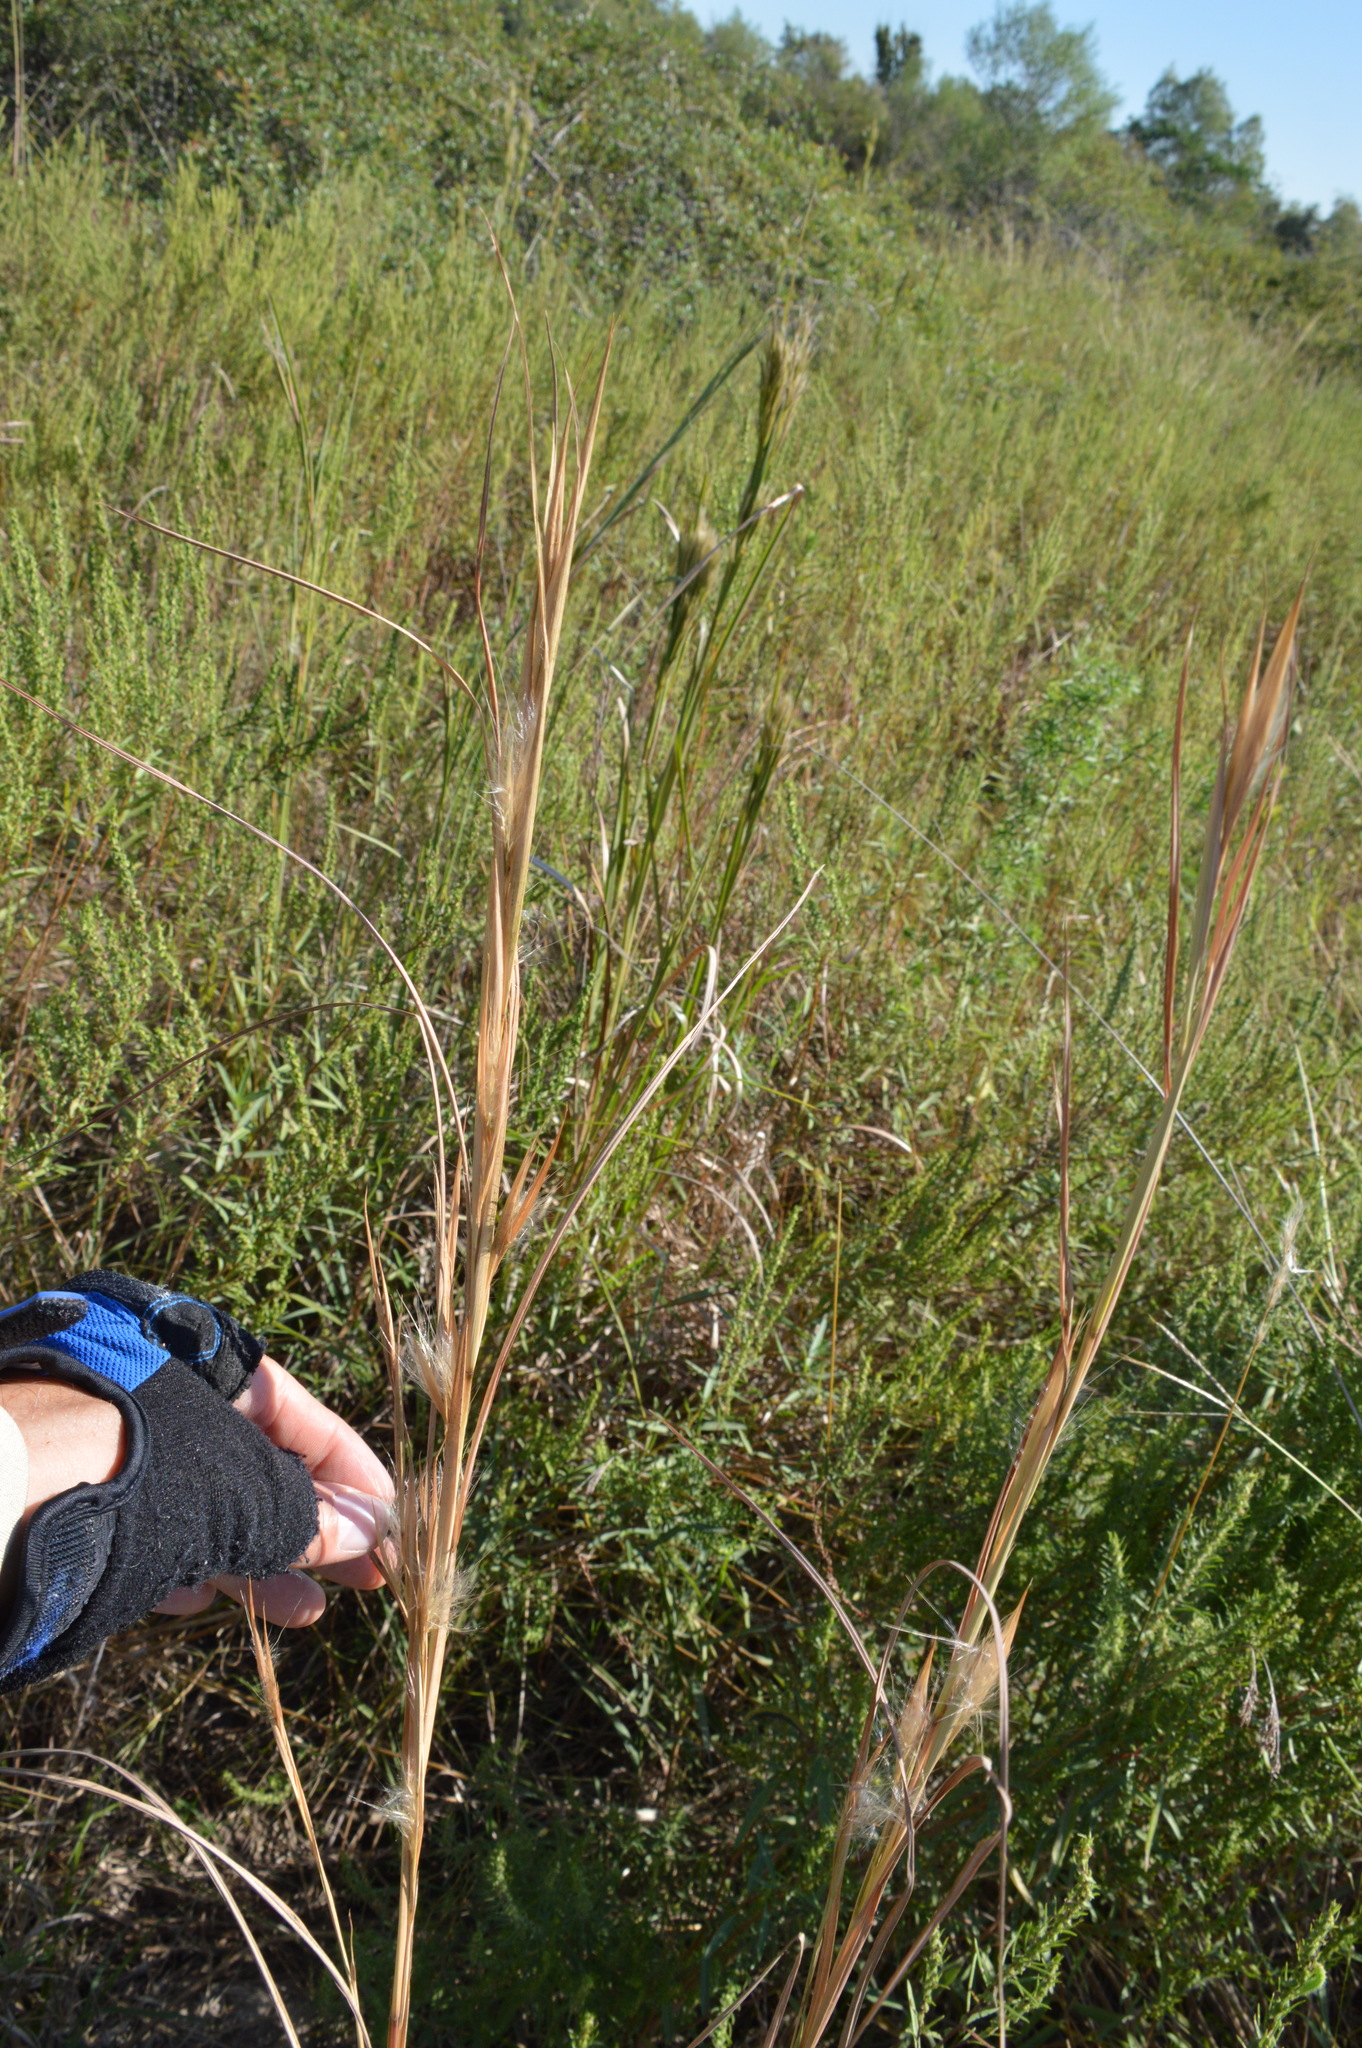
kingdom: Plantae
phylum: Tracheophyta
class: Liliopsida
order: Poales
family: Poaceae
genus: Andropogon
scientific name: Andropogon virginicus
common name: Broomsedge bluestem
